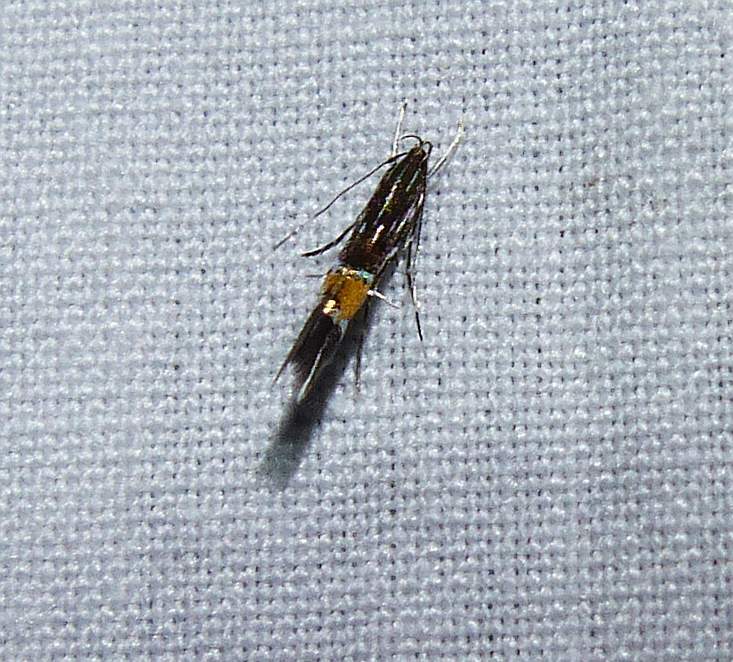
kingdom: Animalia
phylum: Arthropoda
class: Insecta
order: Lepidoptera
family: Cosmopterigidae
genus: Cosmopterix
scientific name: Cosmopterix pulchrimella
